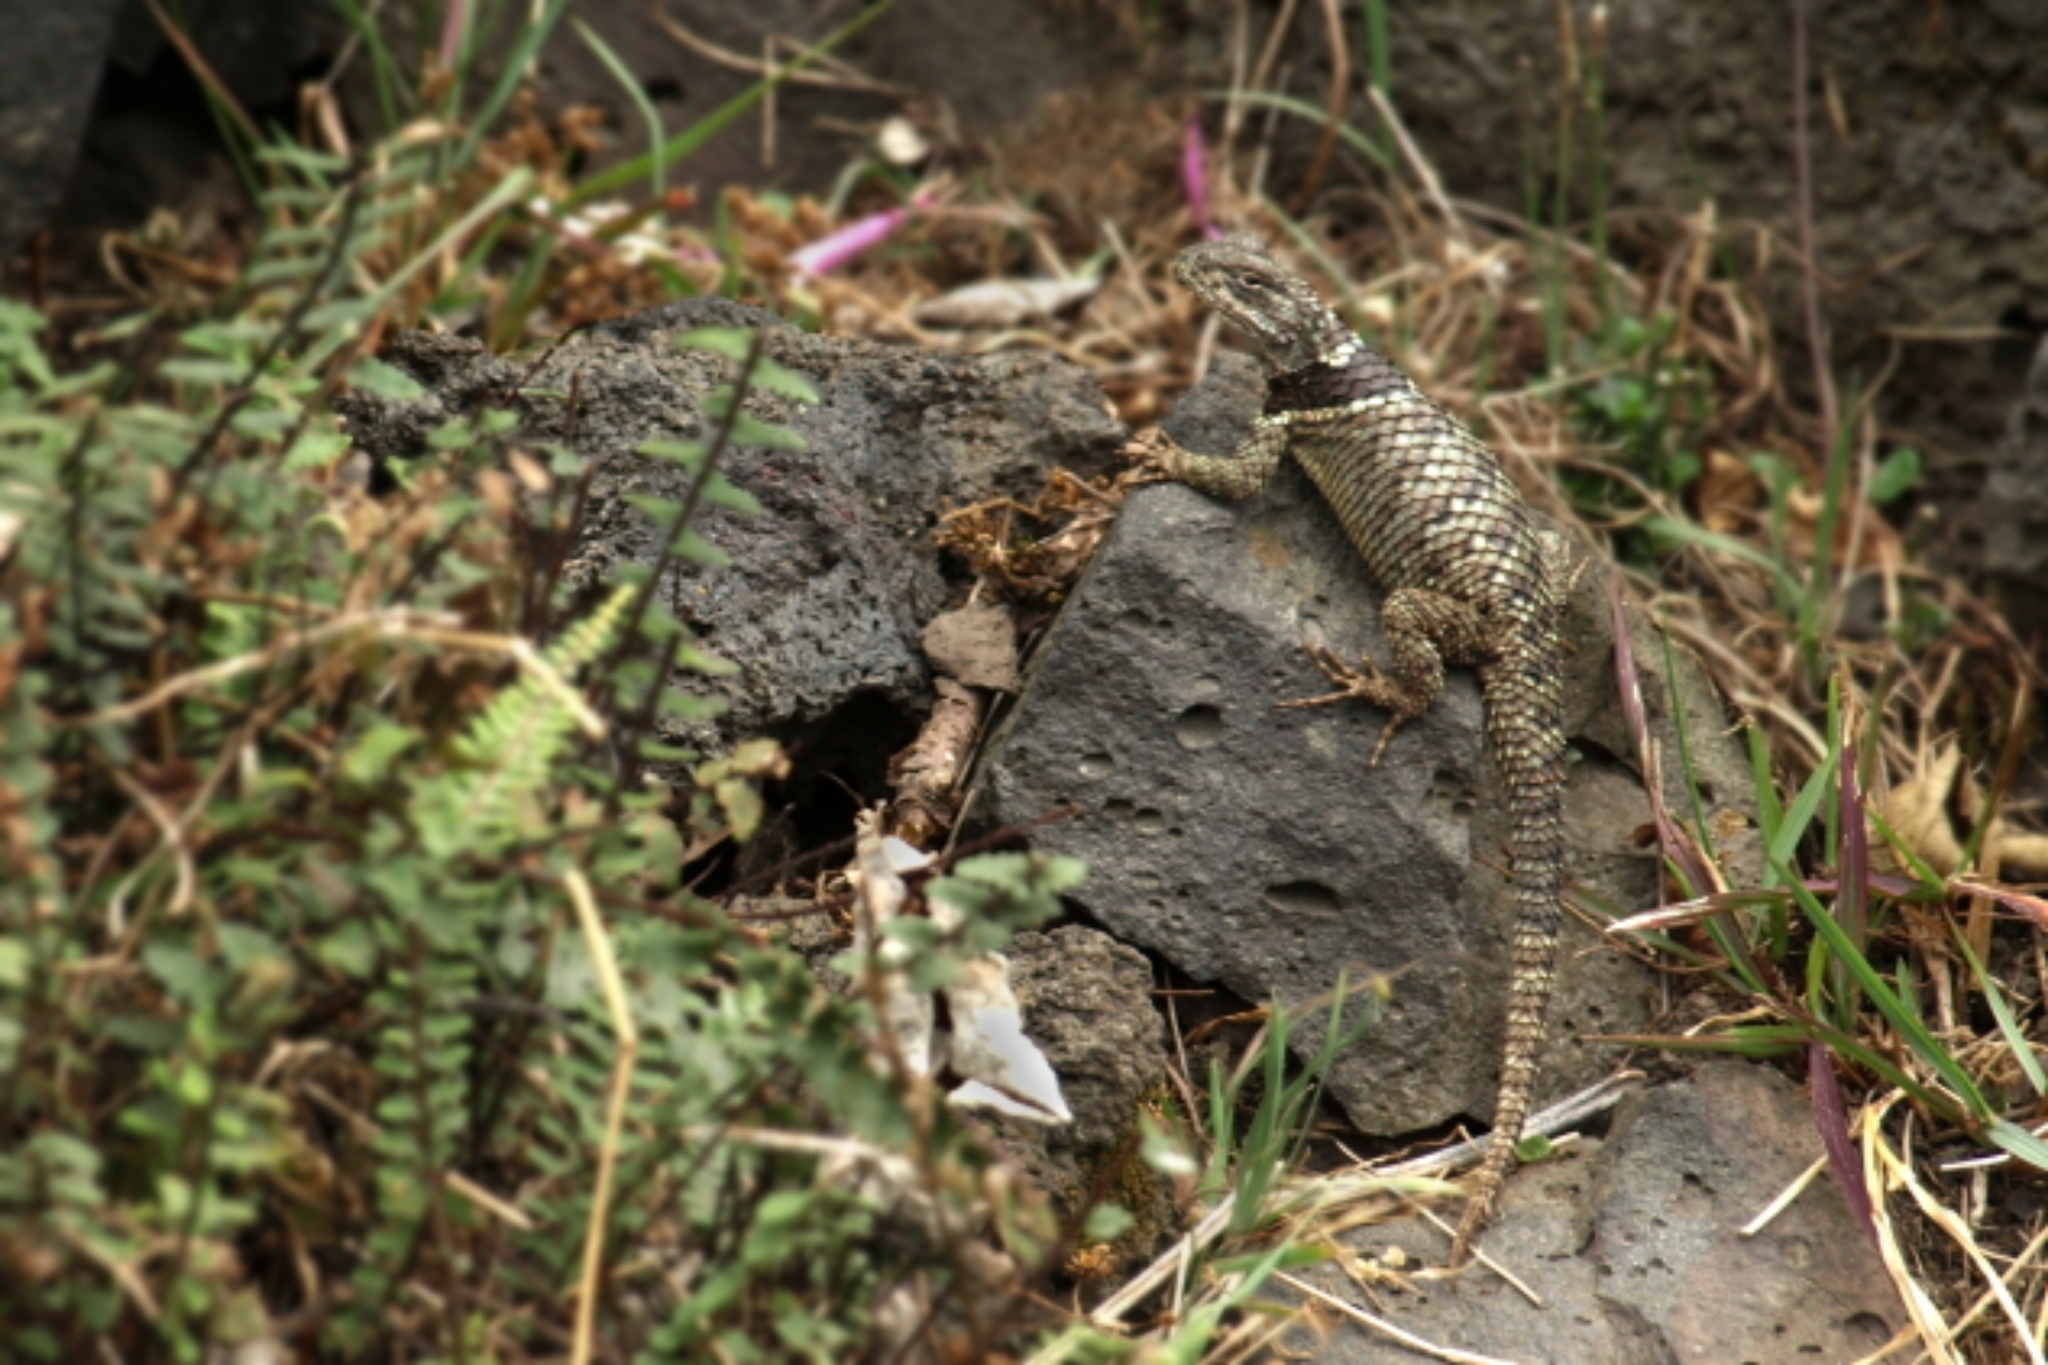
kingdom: Animalia
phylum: Chordata
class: Squamata
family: Phrynosomatidae
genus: Sceloporus
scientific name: Sceloporus torquatus
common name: Central plateau torquate lizard [melanogaster]
